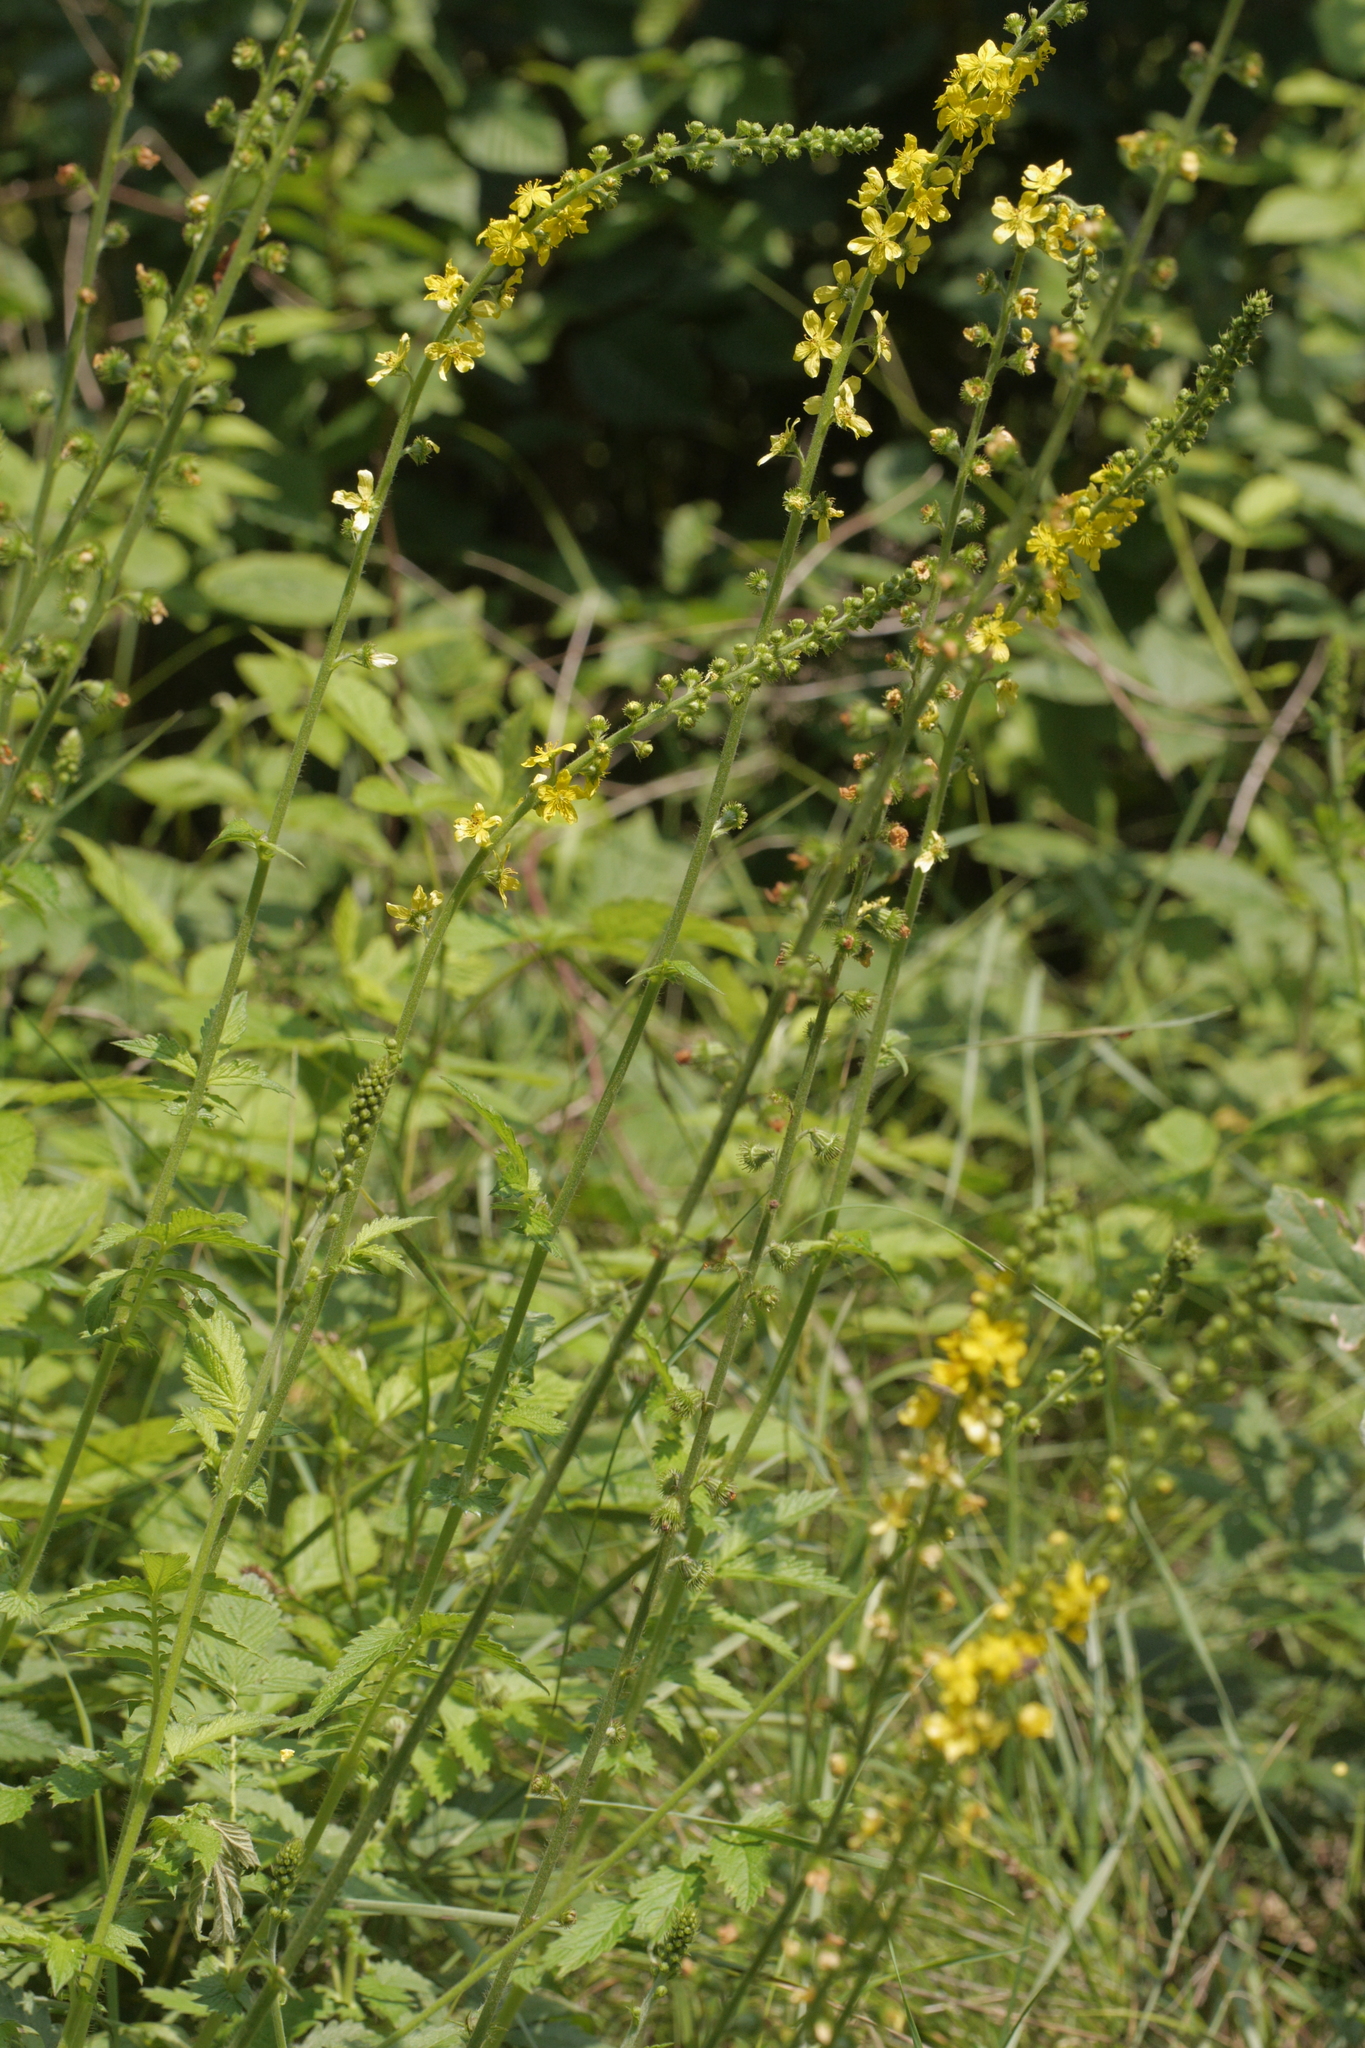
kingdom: Plantae
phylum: Tracheophyta
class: Magnoliopsida
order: Rosales
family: Rosaceae
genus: Agrimonia
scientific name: Agrimonia eupatoria
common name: Agrimony
